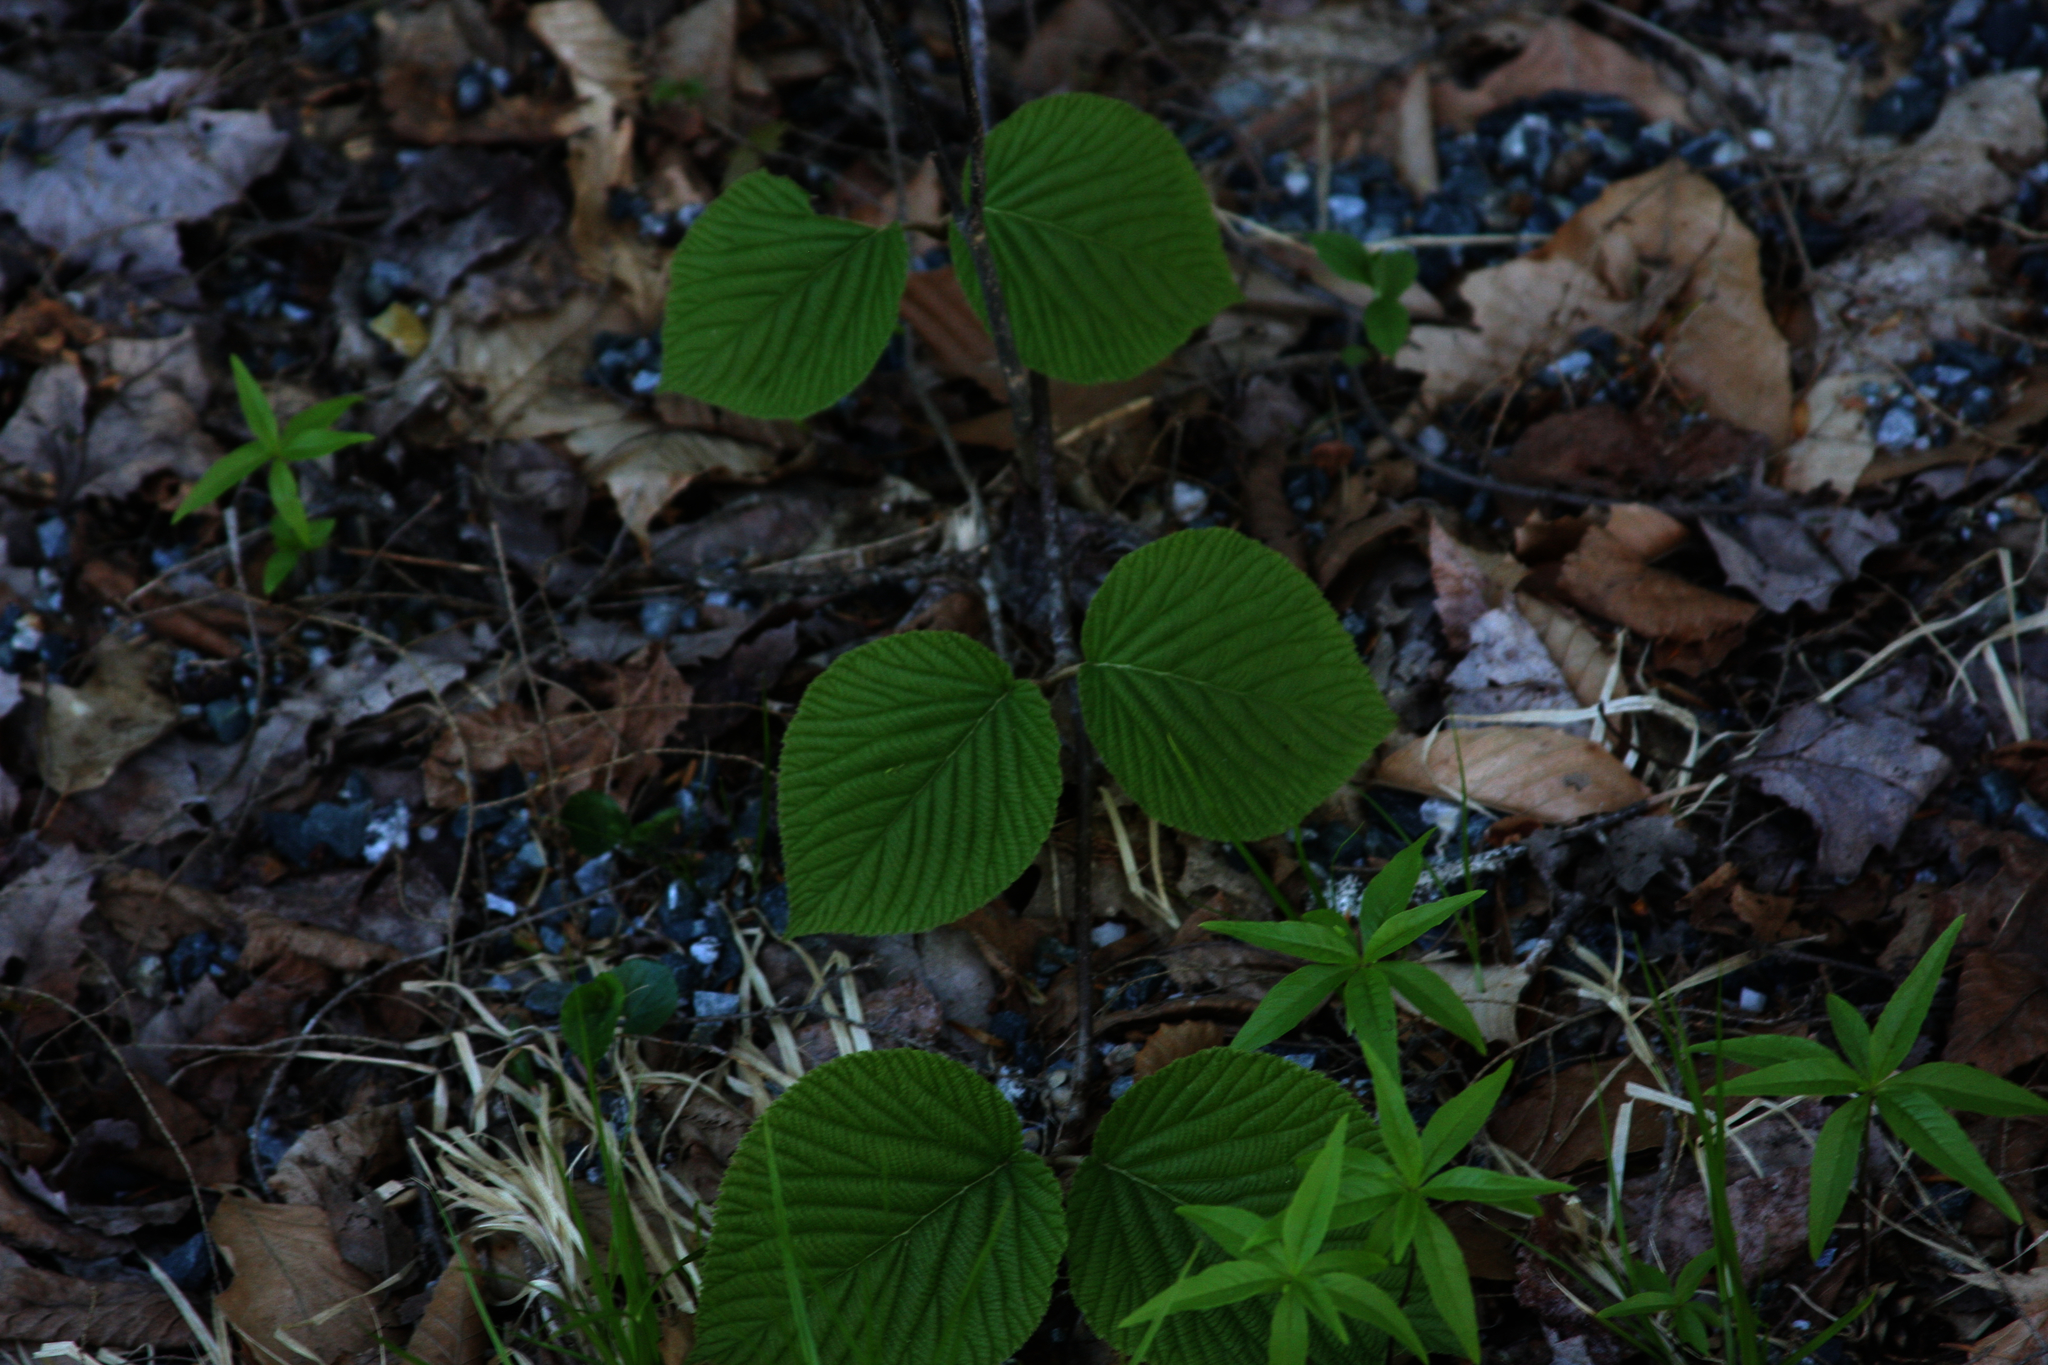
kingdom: Plantae
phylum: Tracheophyta
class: Magnoliopsida
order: Ericales
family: Primulaceae
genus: Lysimachia
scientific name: Lysimachia borealis
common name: American starflower
